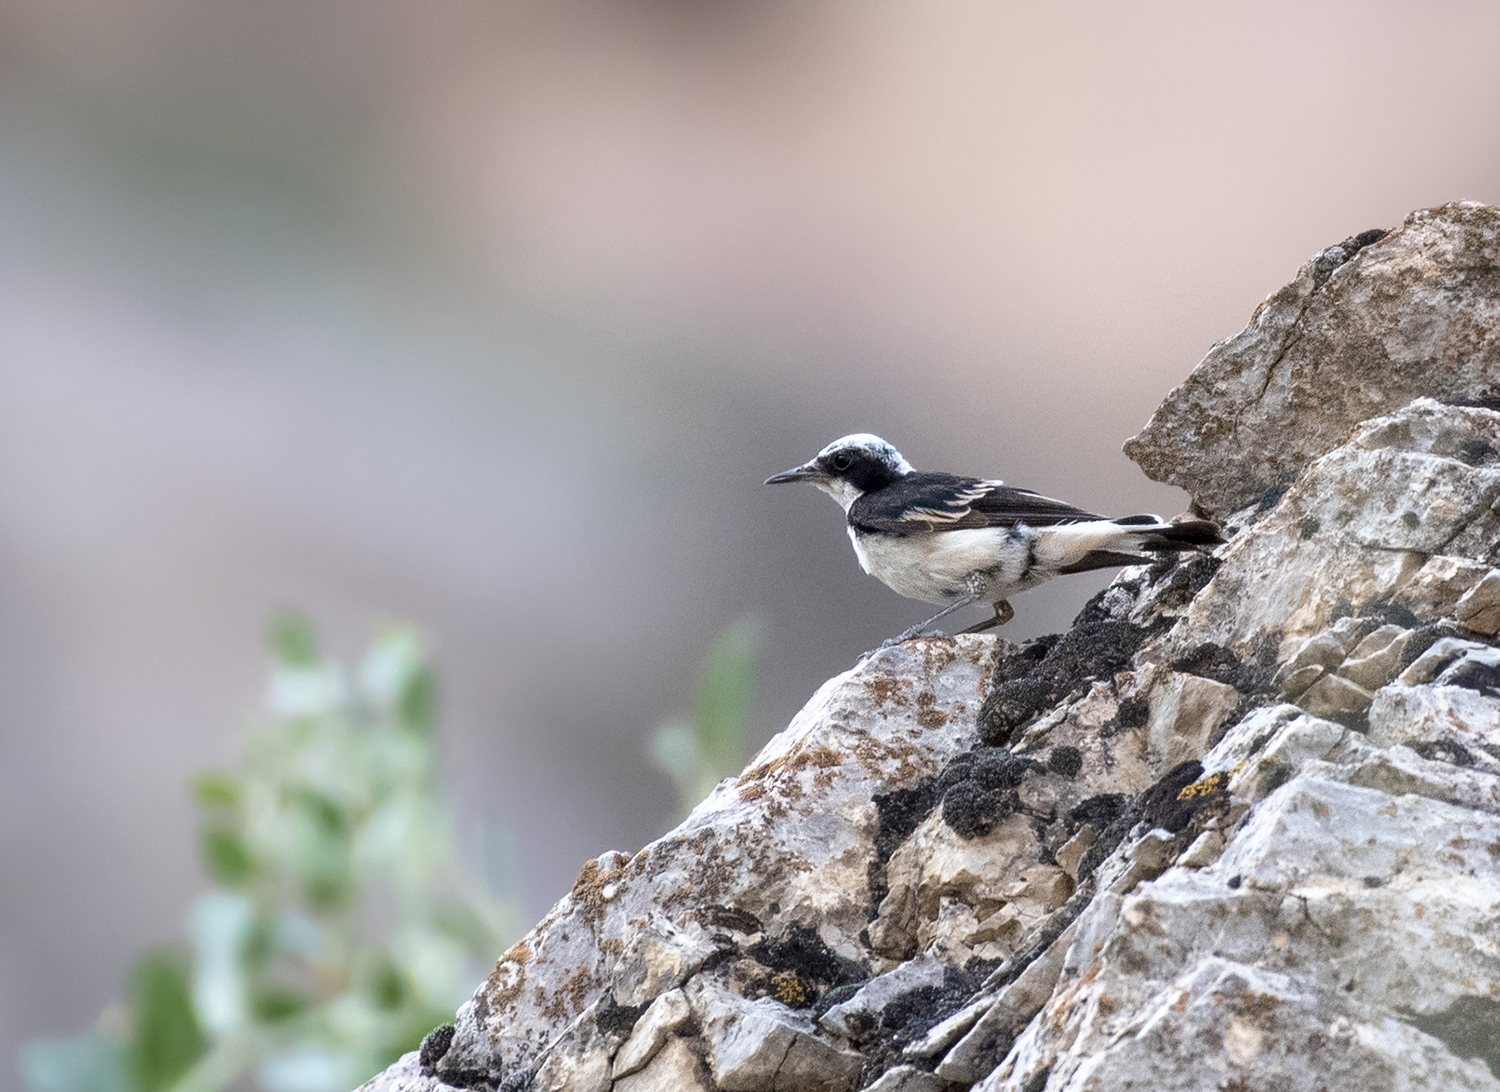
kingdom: Animalia
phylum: Chordata
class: Aves
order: Passeriformes
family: Muscicapidae
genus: Oenanthe
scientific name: Oenanthe pleschanka
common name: Pied wheatear
